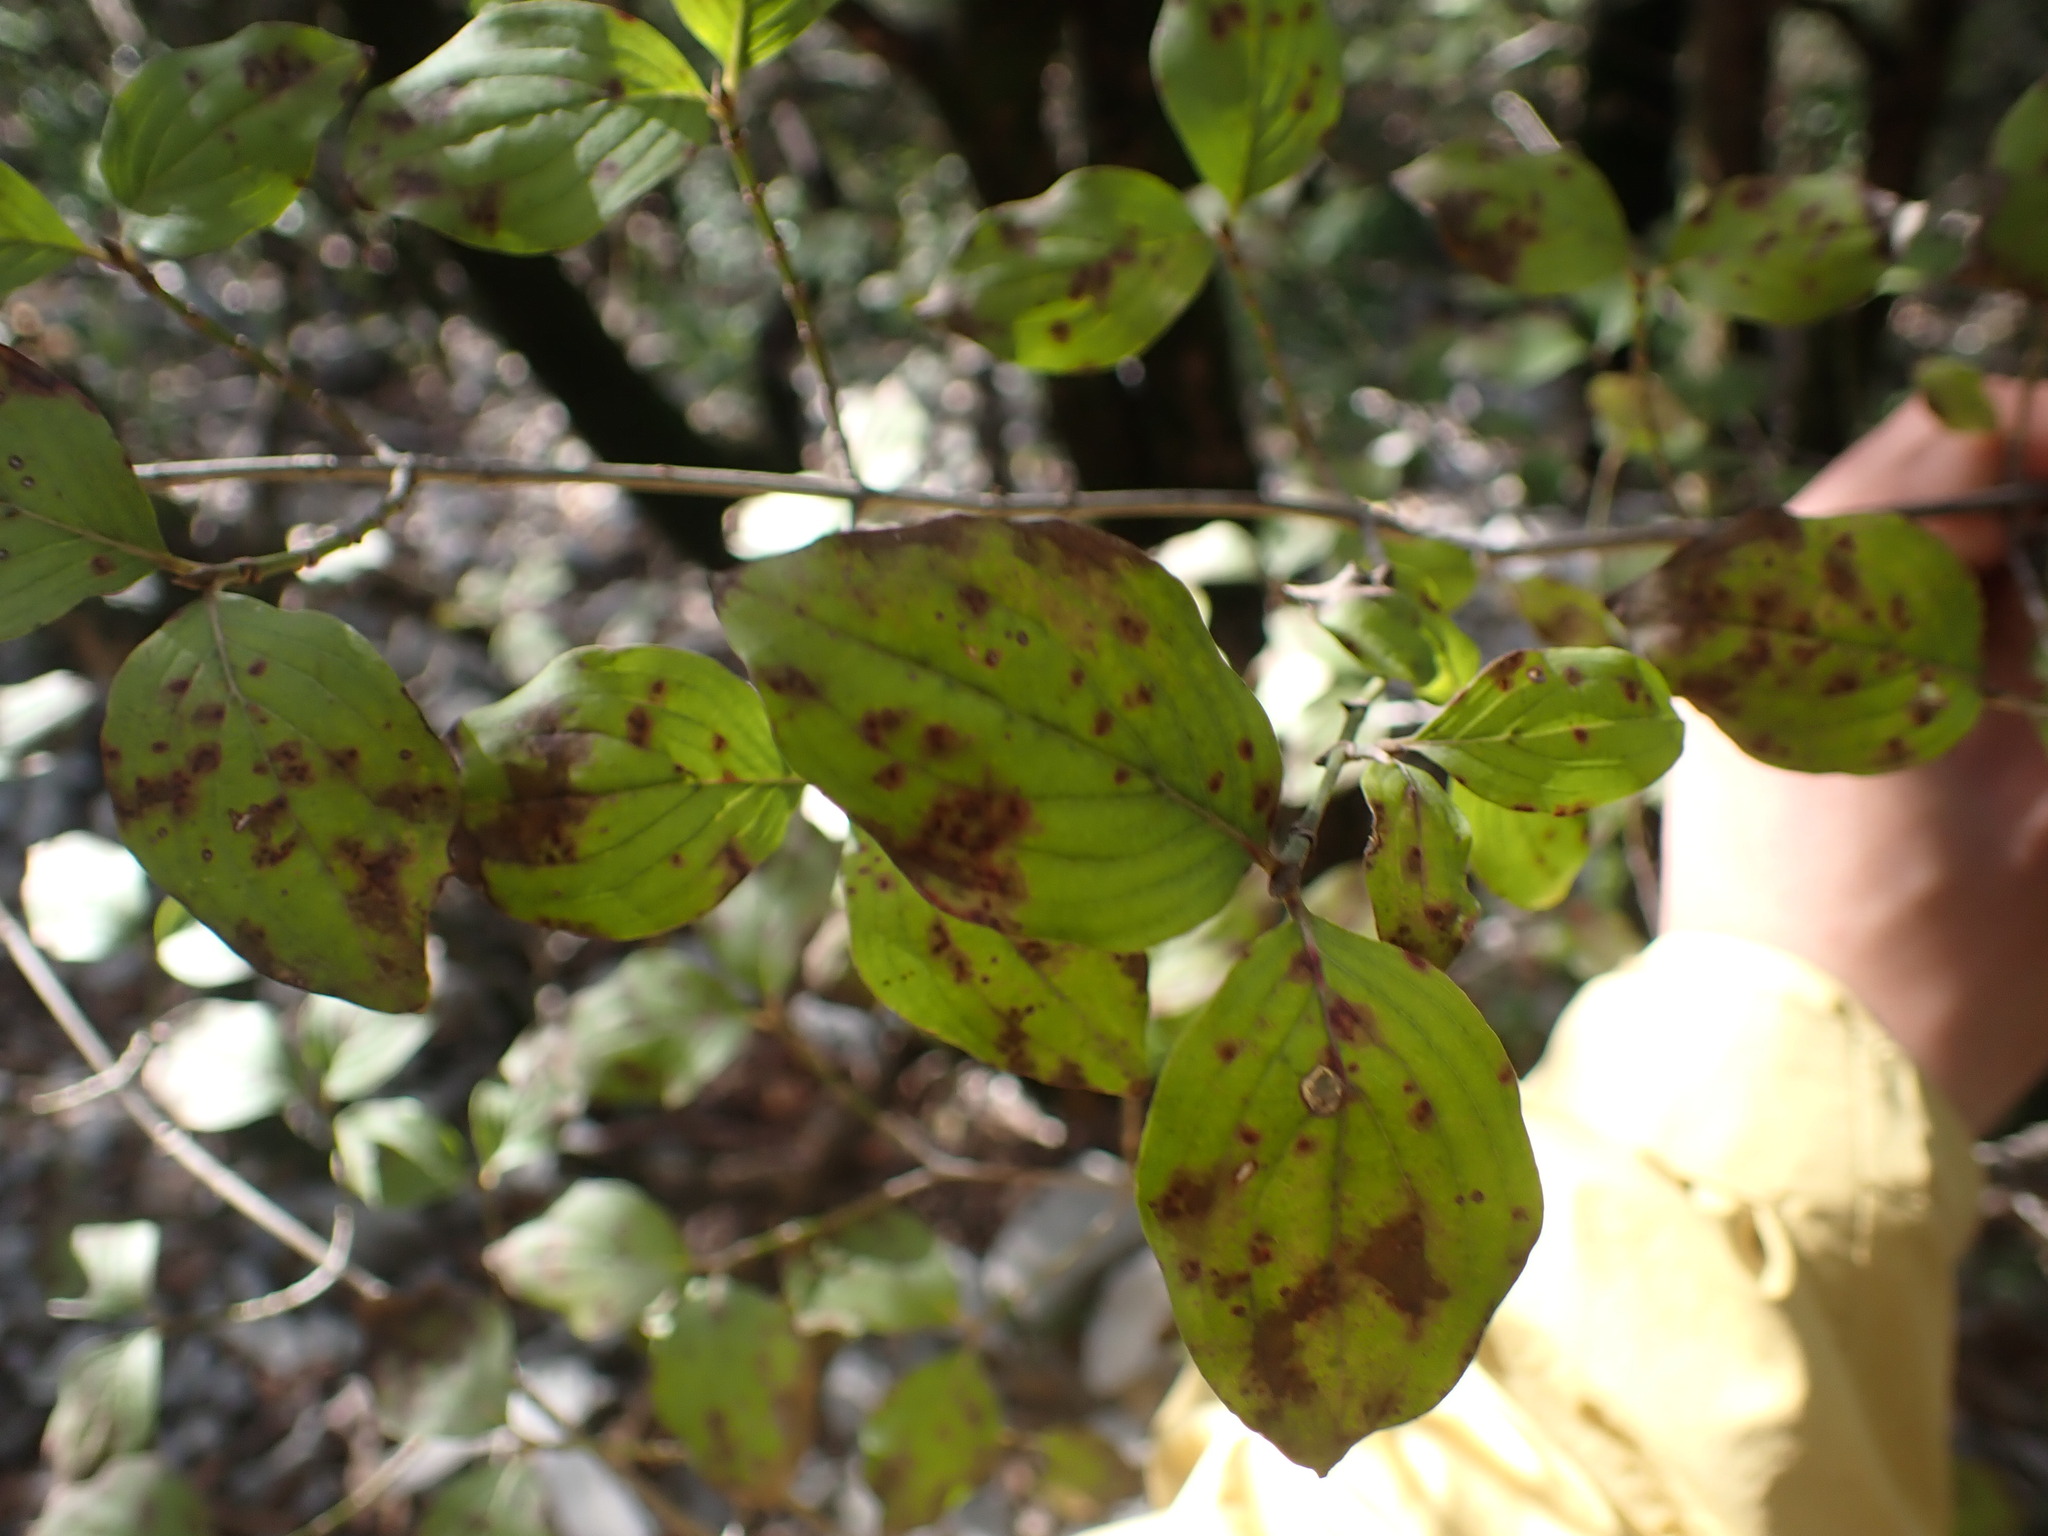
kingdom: Plantae
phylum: Tracheophyta
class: Magnoliopsida
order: Cornales
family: Cornaceae
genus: Cornus
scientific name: Cornus mas
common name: Cornelian-cherry
